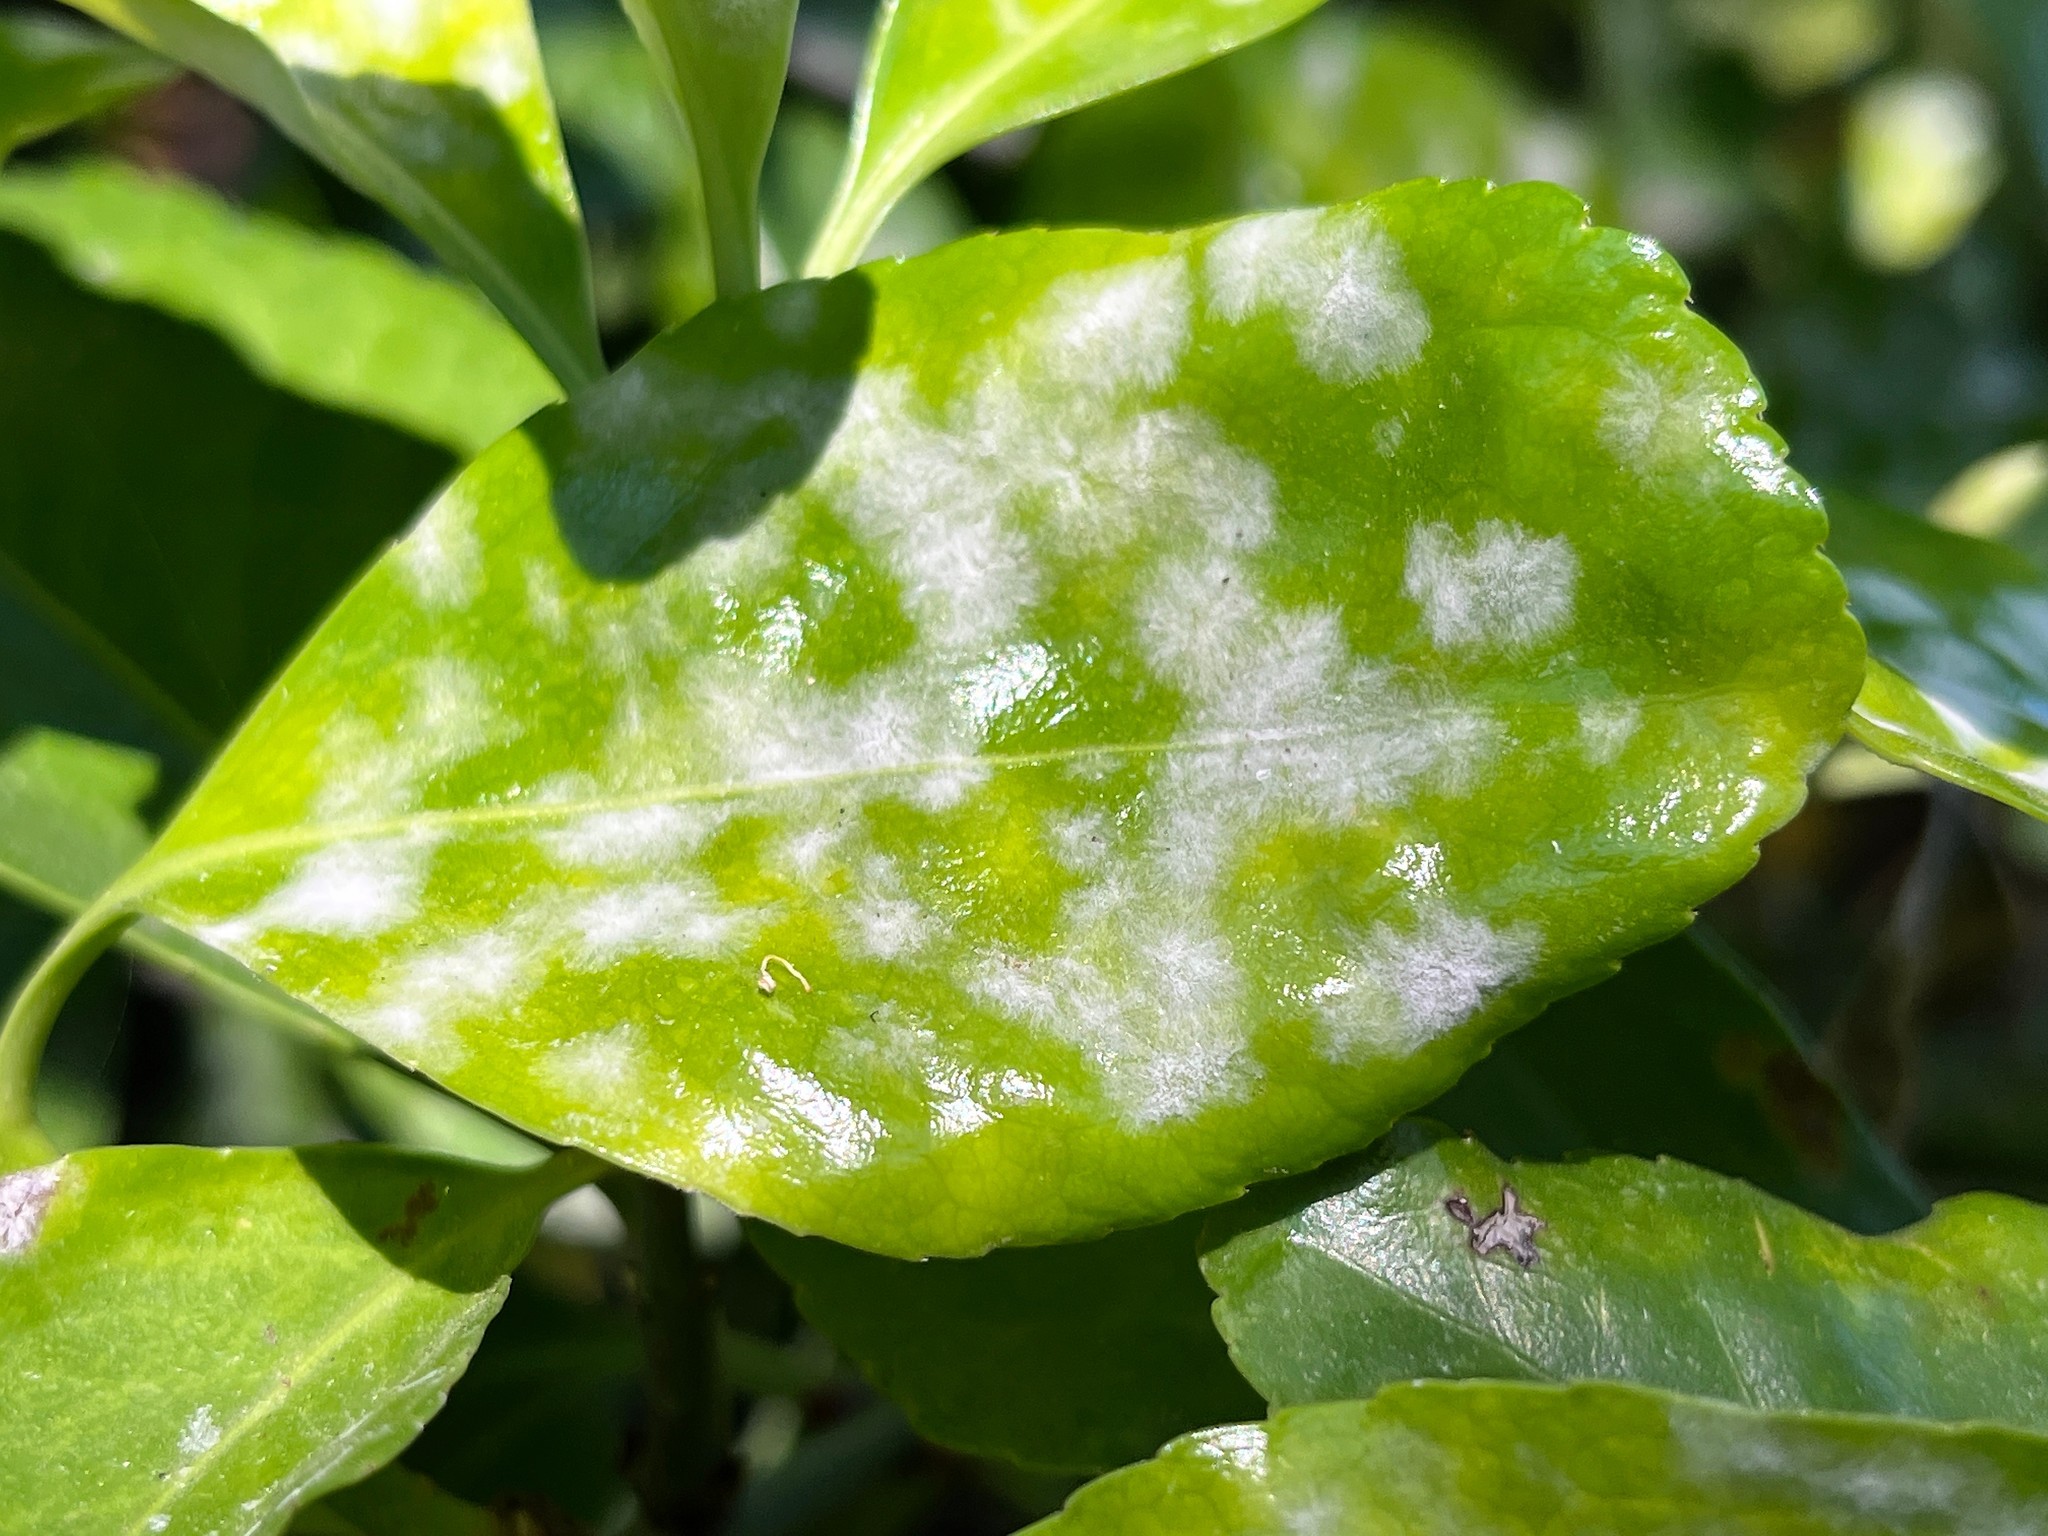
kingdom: Fungi
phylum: Ascomycota
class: Leotiomycetes
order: Helotiales
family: Erysiphaceae
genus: Erysiphe
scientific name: Erysiphe euonymicola
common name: Spindletree mildew
